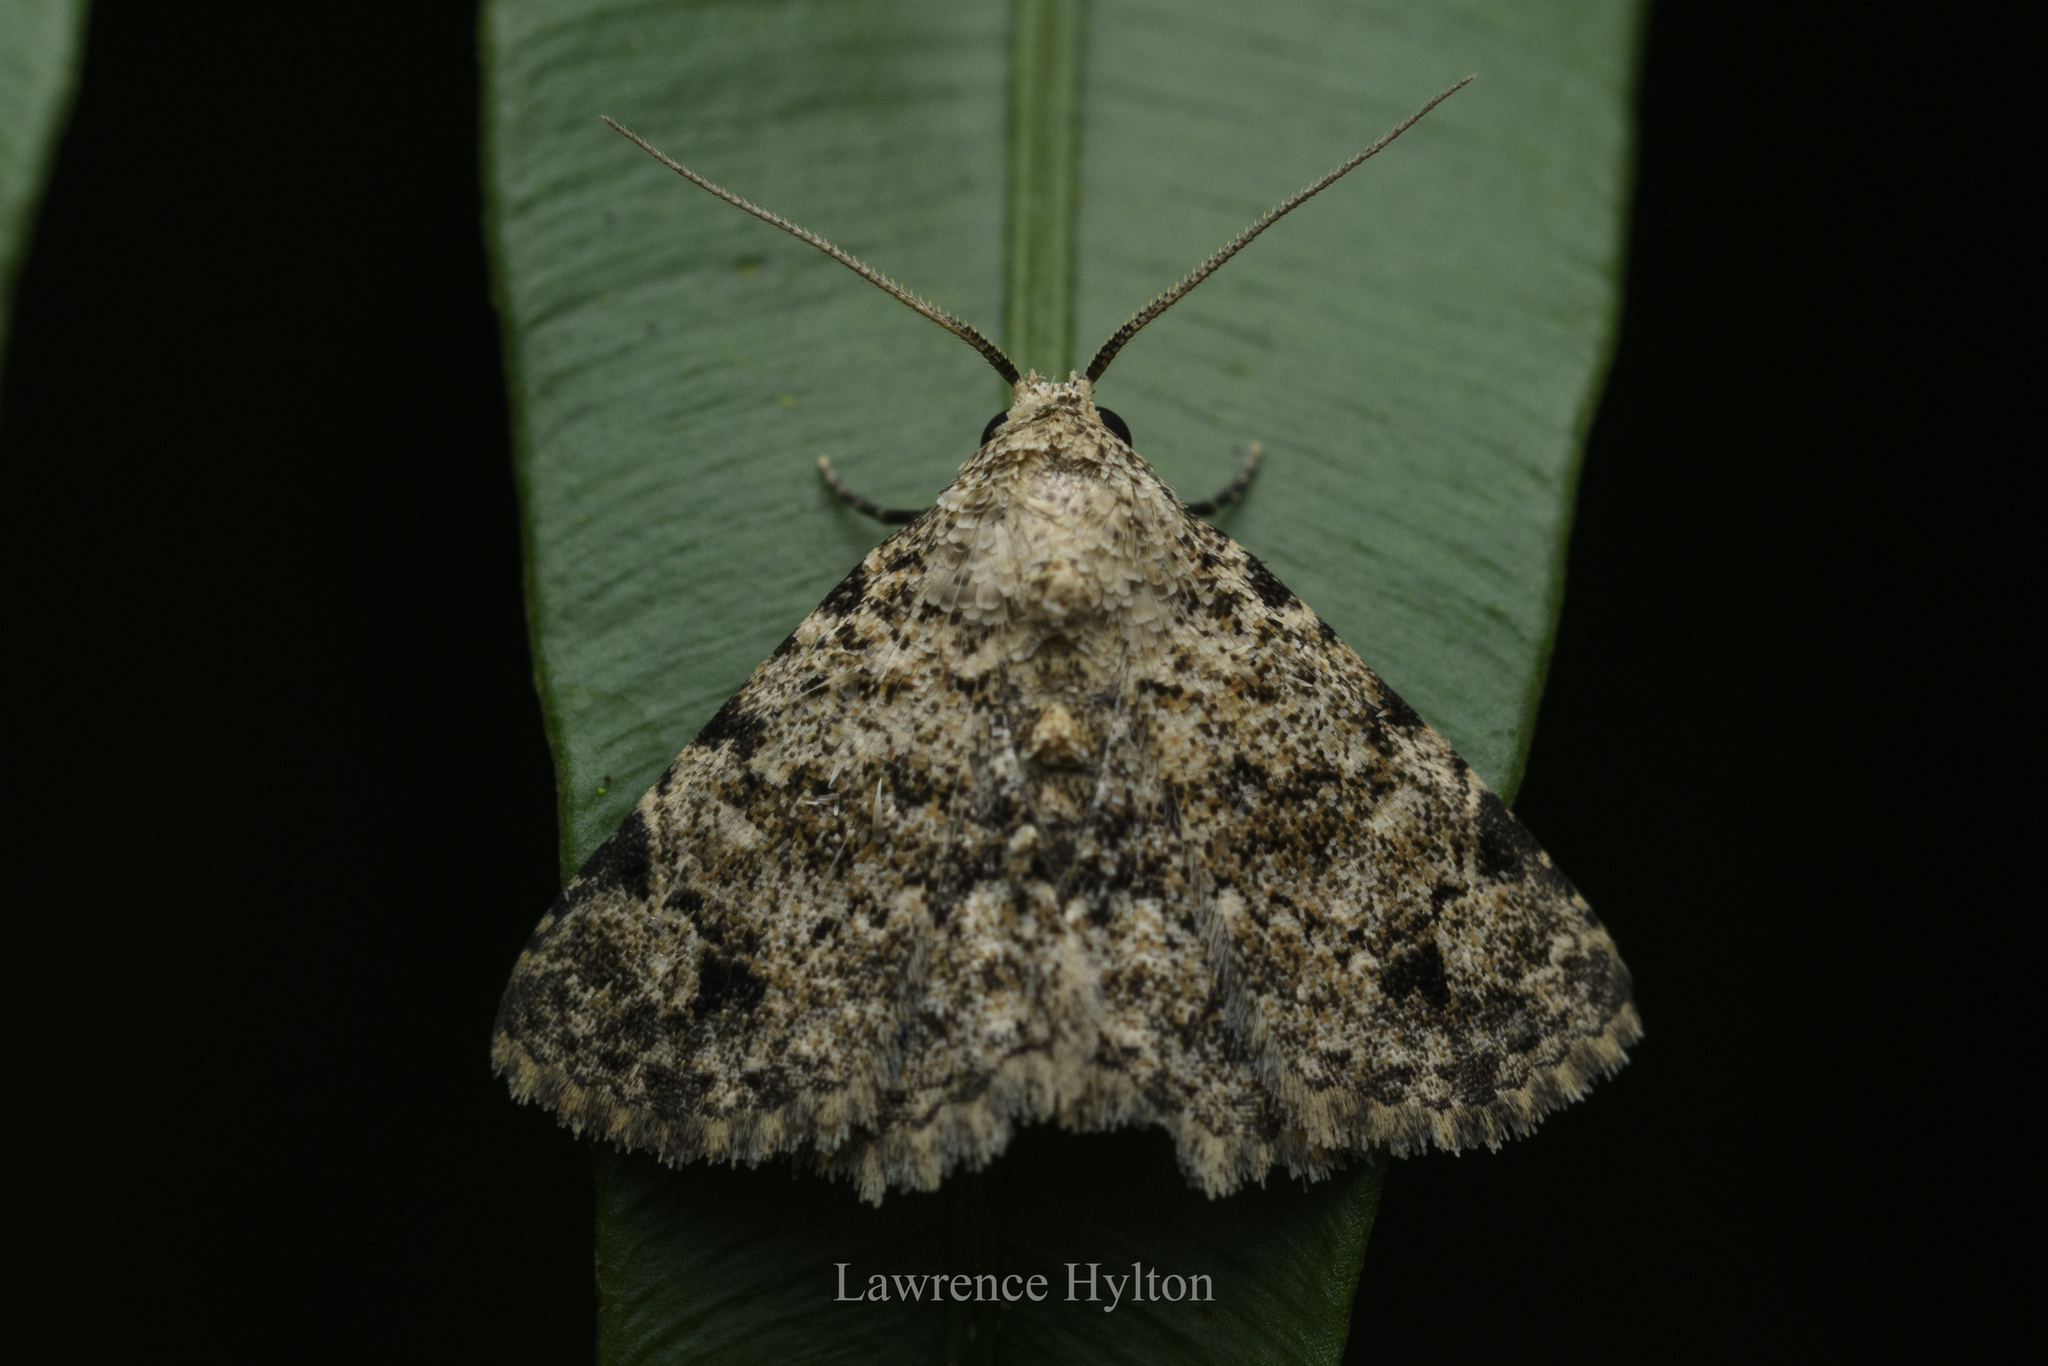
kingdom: Animalia
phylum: Arthropoda
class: Insecta
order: Lepidoptera
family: Erebidae
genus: Panilla
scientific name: Panilla poliochroa
